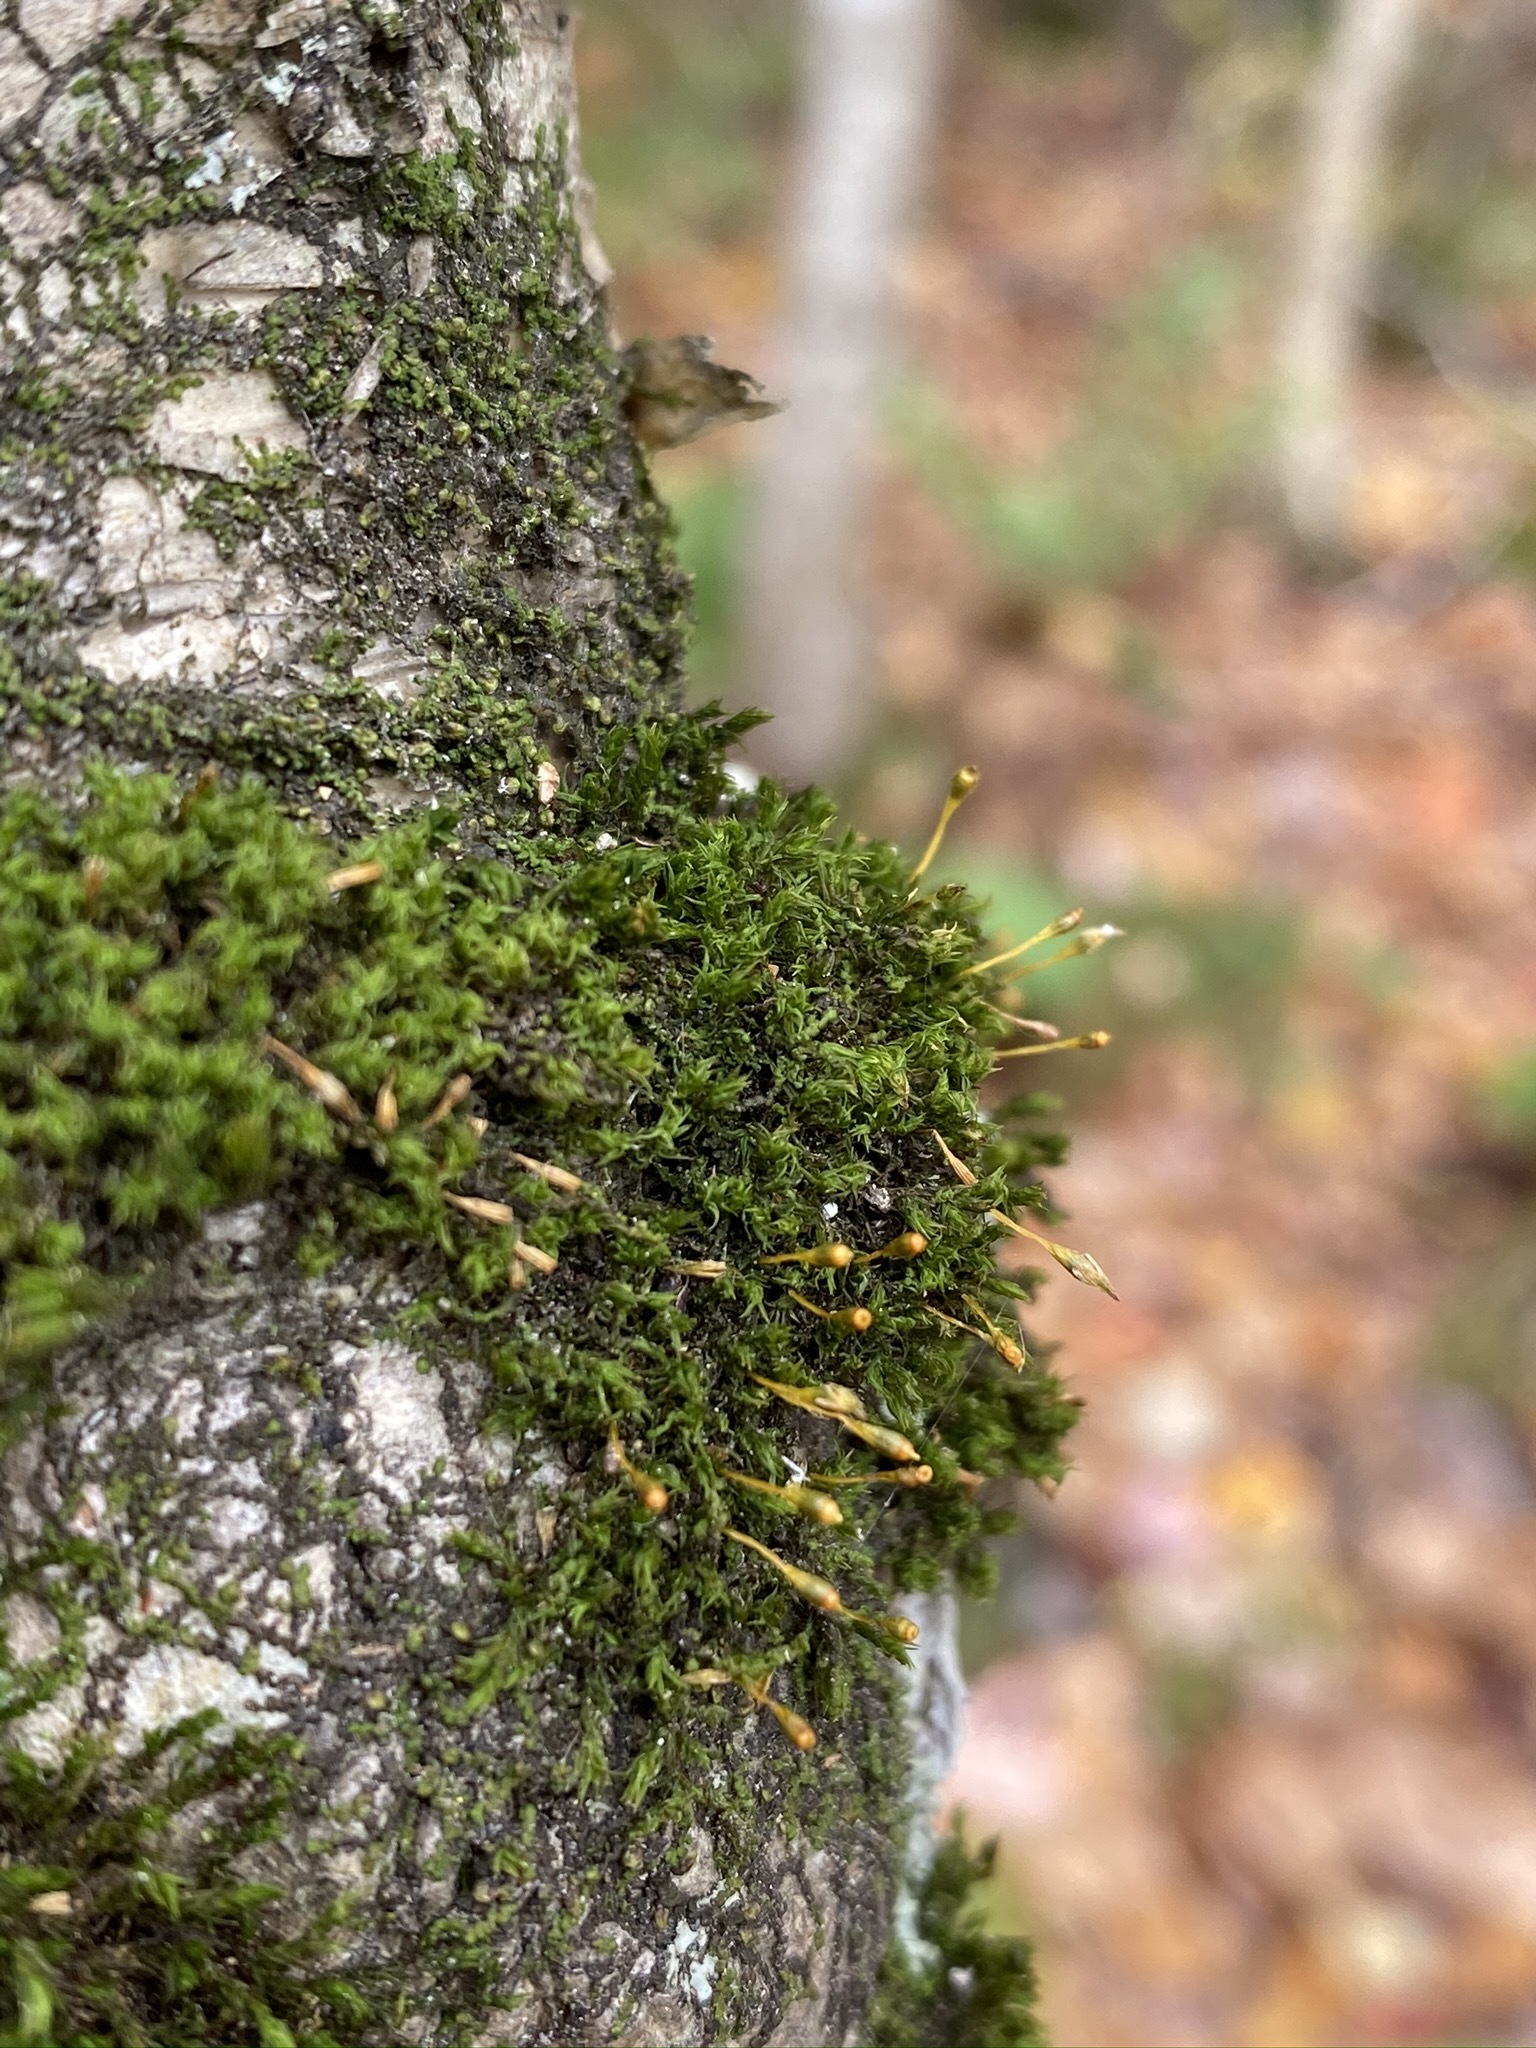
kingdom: Plantae
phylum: Bryophyta
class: Bryopsida
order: Orthotrichales
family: Orthotrichaceae
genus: Ulota
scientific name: Ulota coarctata
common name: Club pincushion moss
